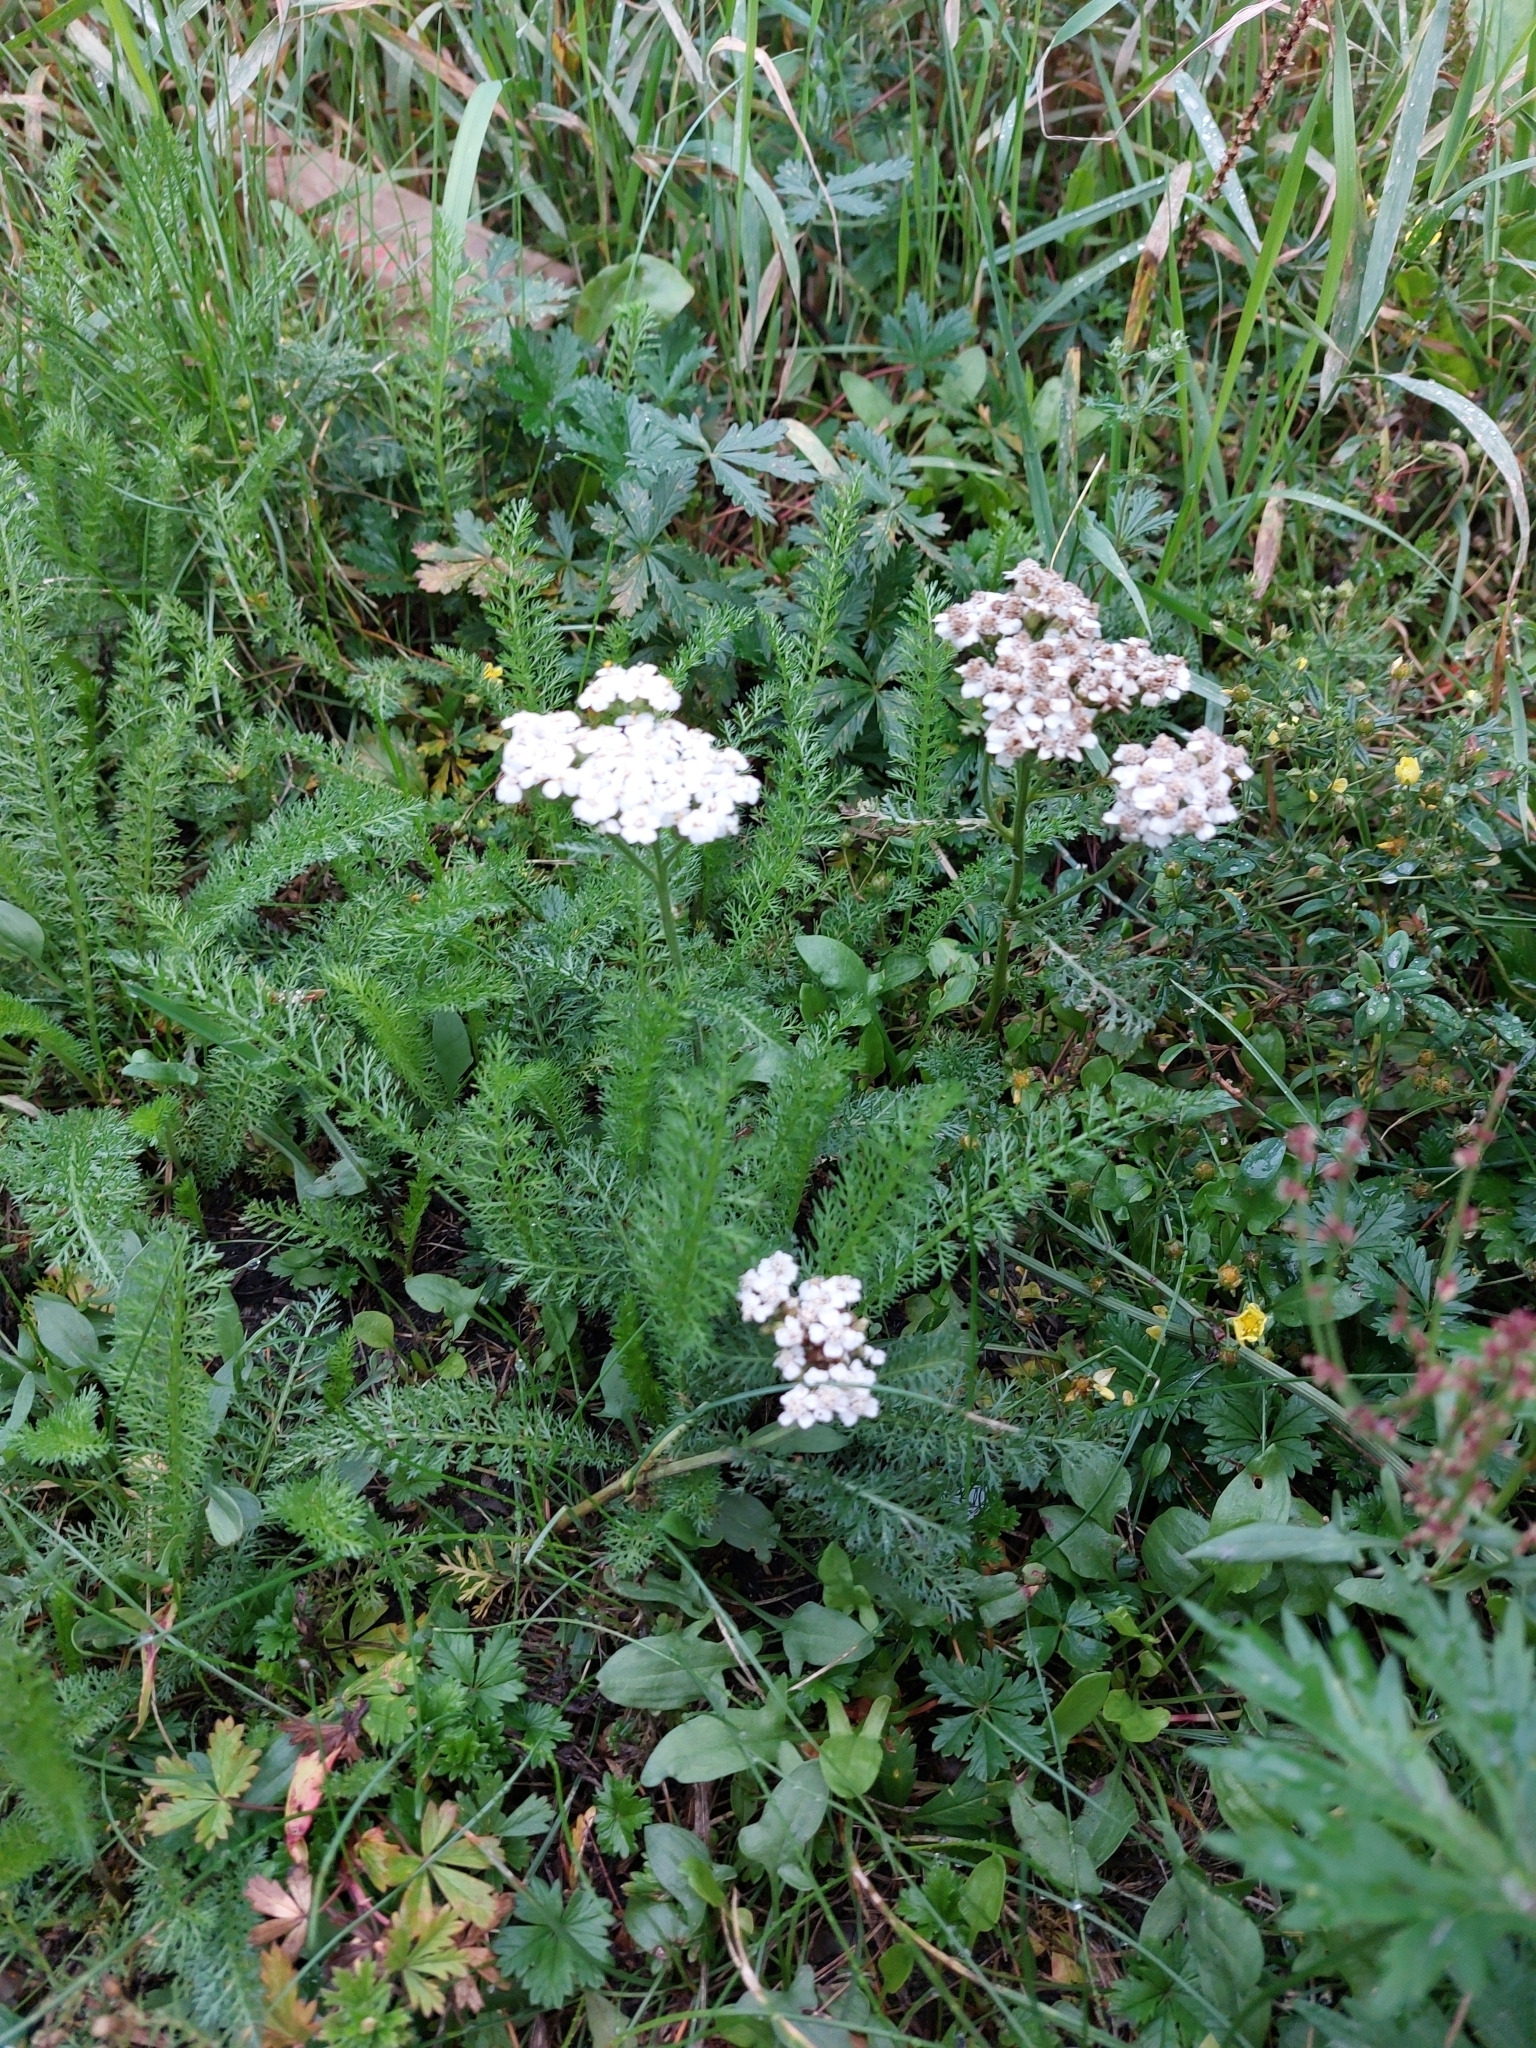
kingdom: Plantae
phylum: Tracheophyta
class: Magnoliopsida
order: Asterales
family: Asteraceae
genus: Achillea
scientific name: Achillea millefolium
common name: Yarrow
